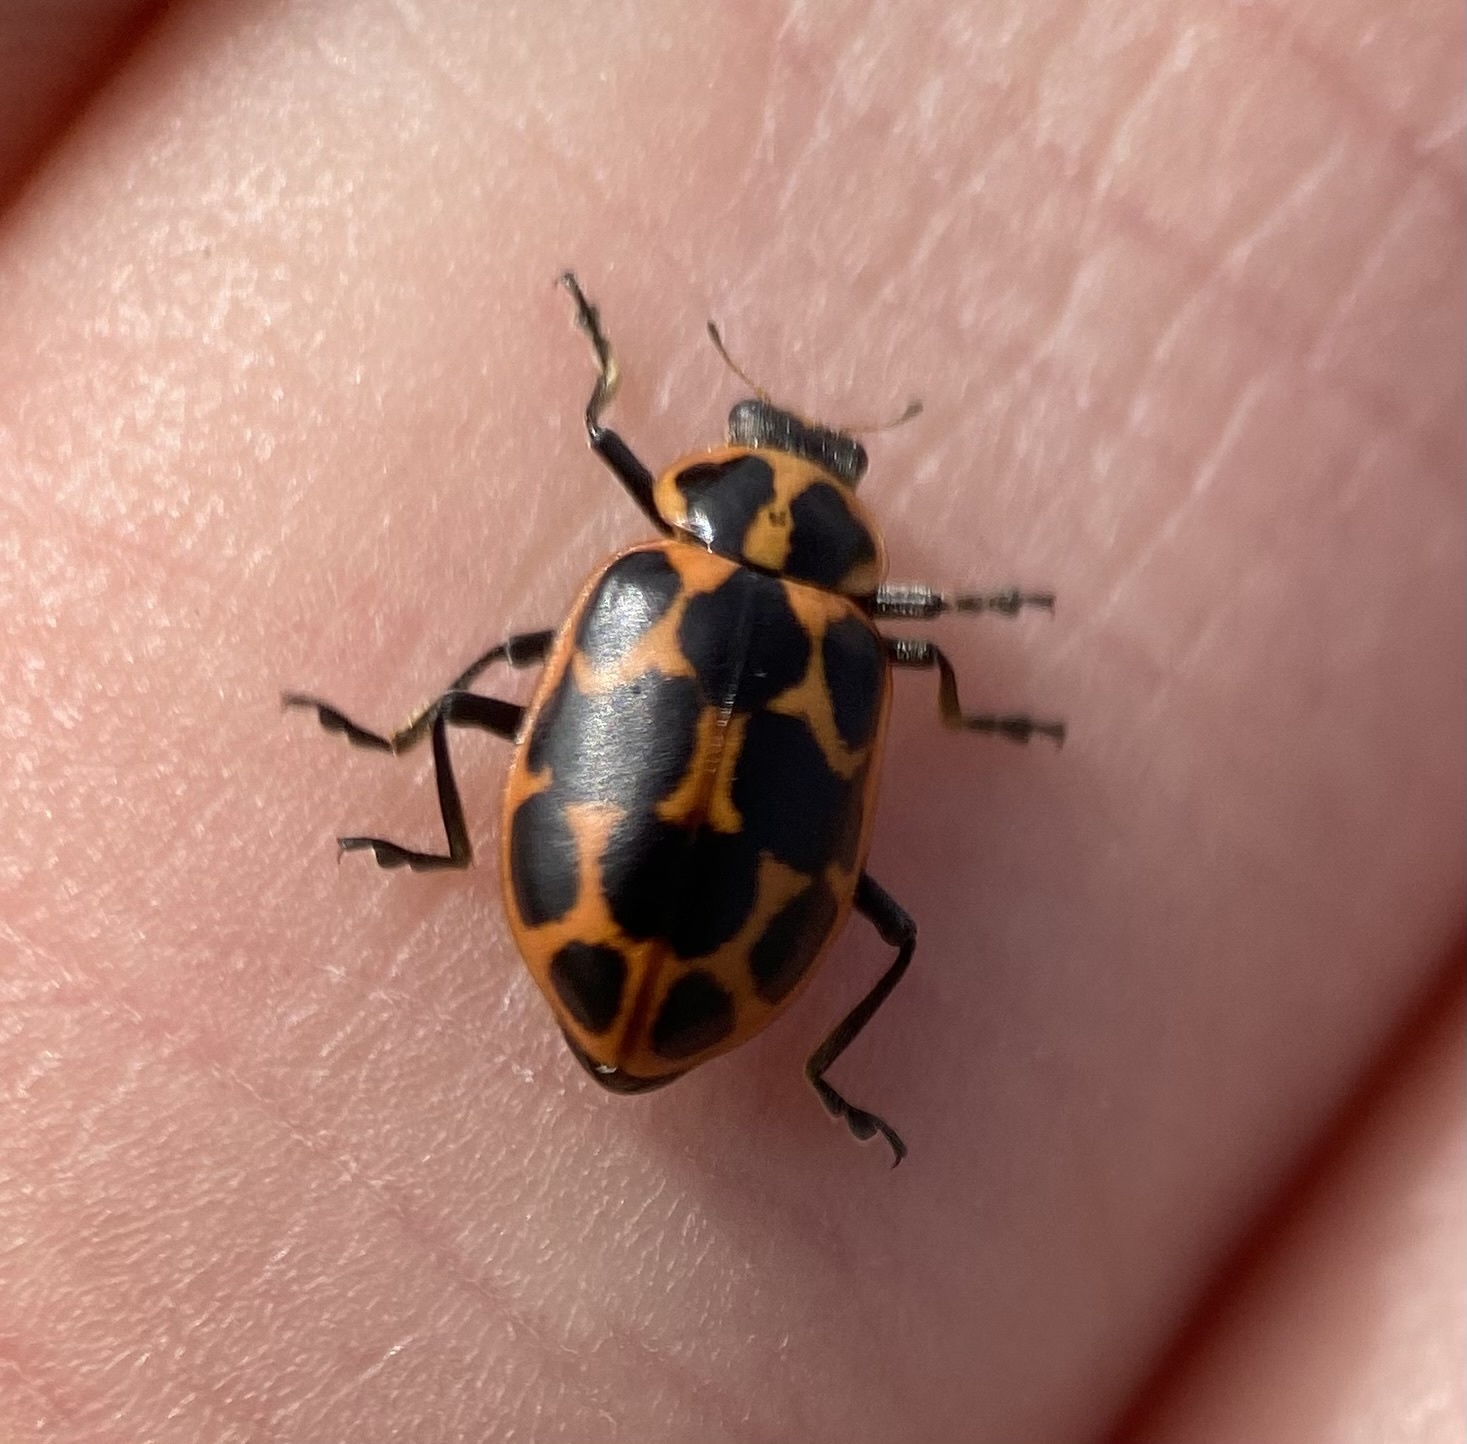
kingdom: Animalia
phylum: Arthropoda
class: Insecta
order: Coleoptera
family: Coccinellidae
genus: Coleomegilla
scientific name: Coleomegilla
